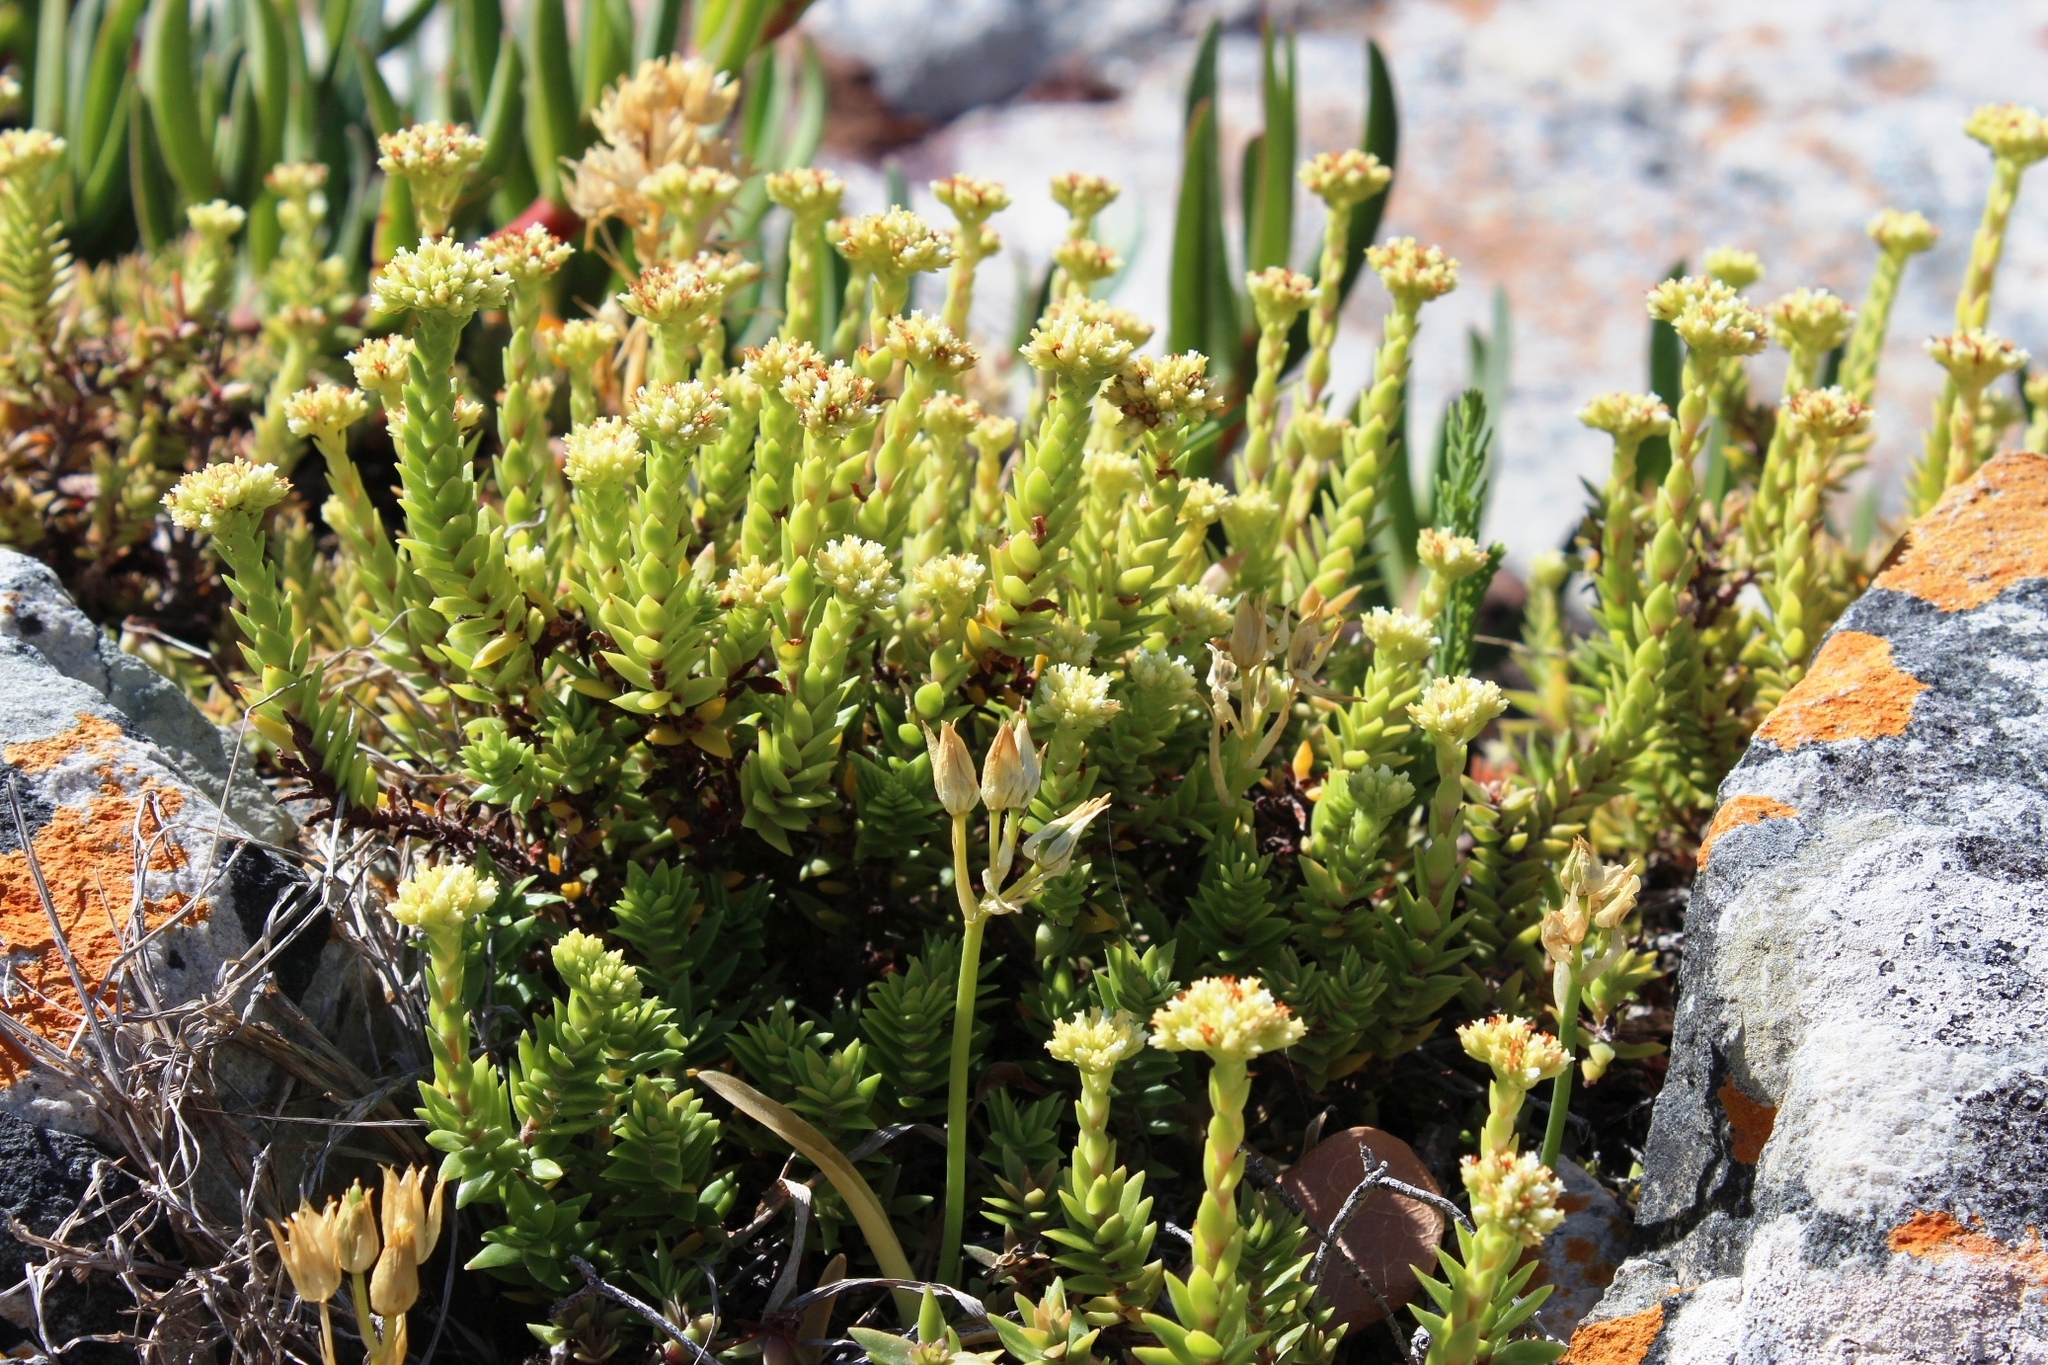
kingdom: Plantae
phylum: Tracheophyta
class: Magnoliopsida
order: Saxifragales
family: Crassulaceae
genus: Crassula
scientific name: Crassula subulata
